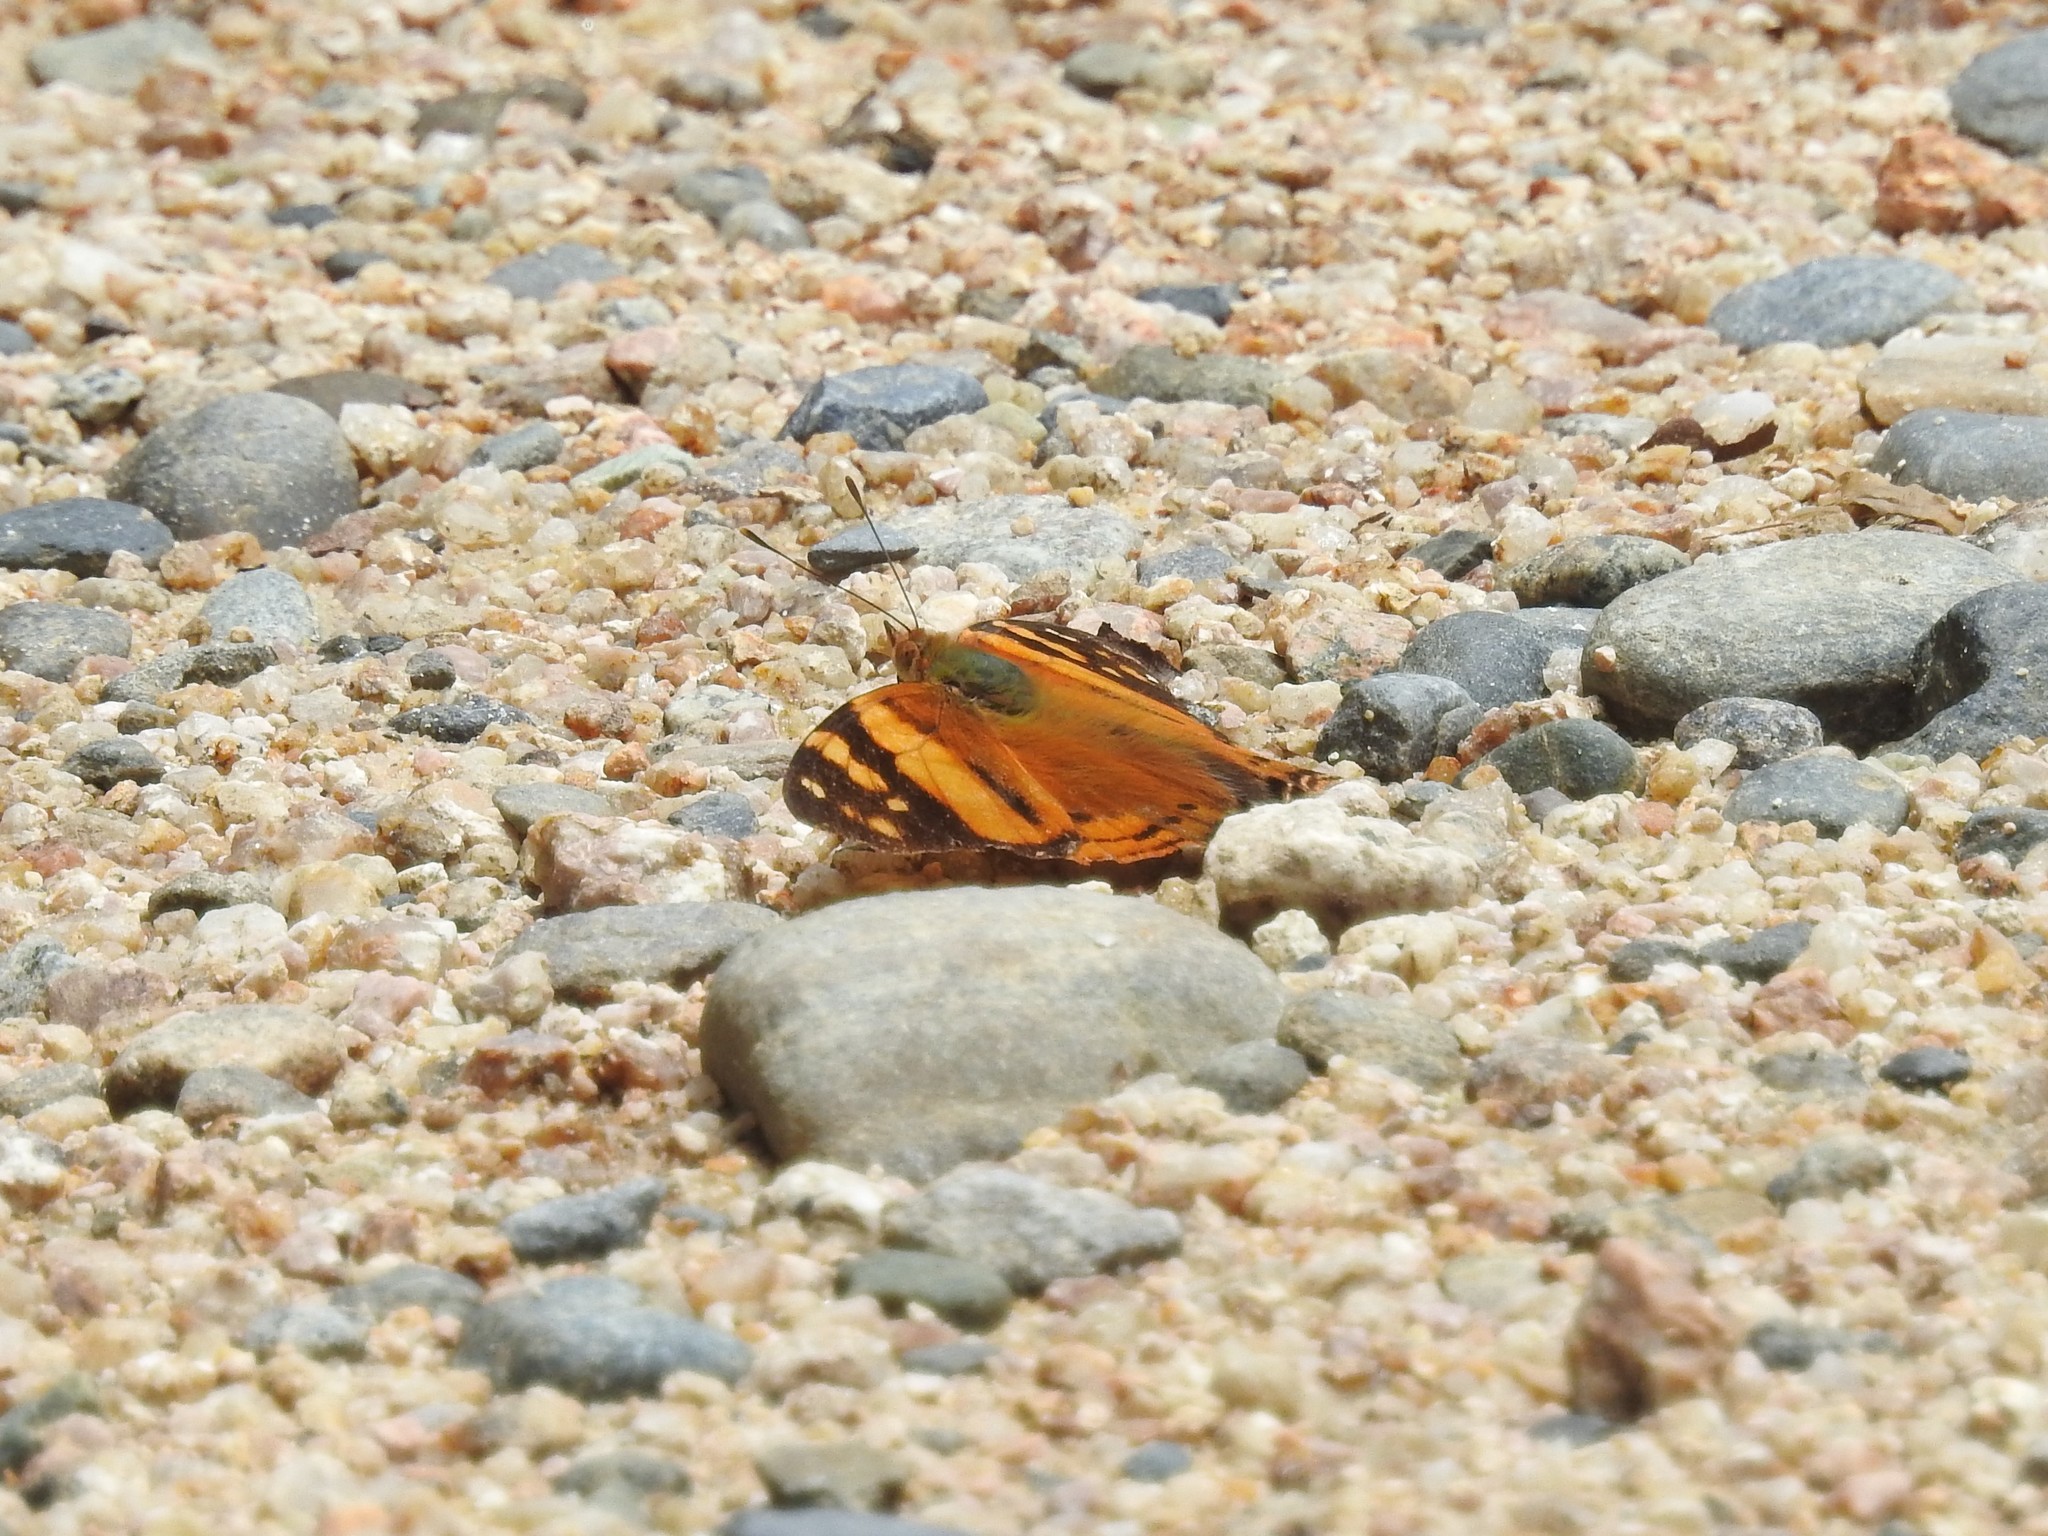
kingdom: Animalia
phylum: Arthropoda
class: Insecta
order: Lepidoptera
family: Nymphalidae
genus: Hypanartia
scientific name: Hypanartia lethe
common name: Orange mapwing
